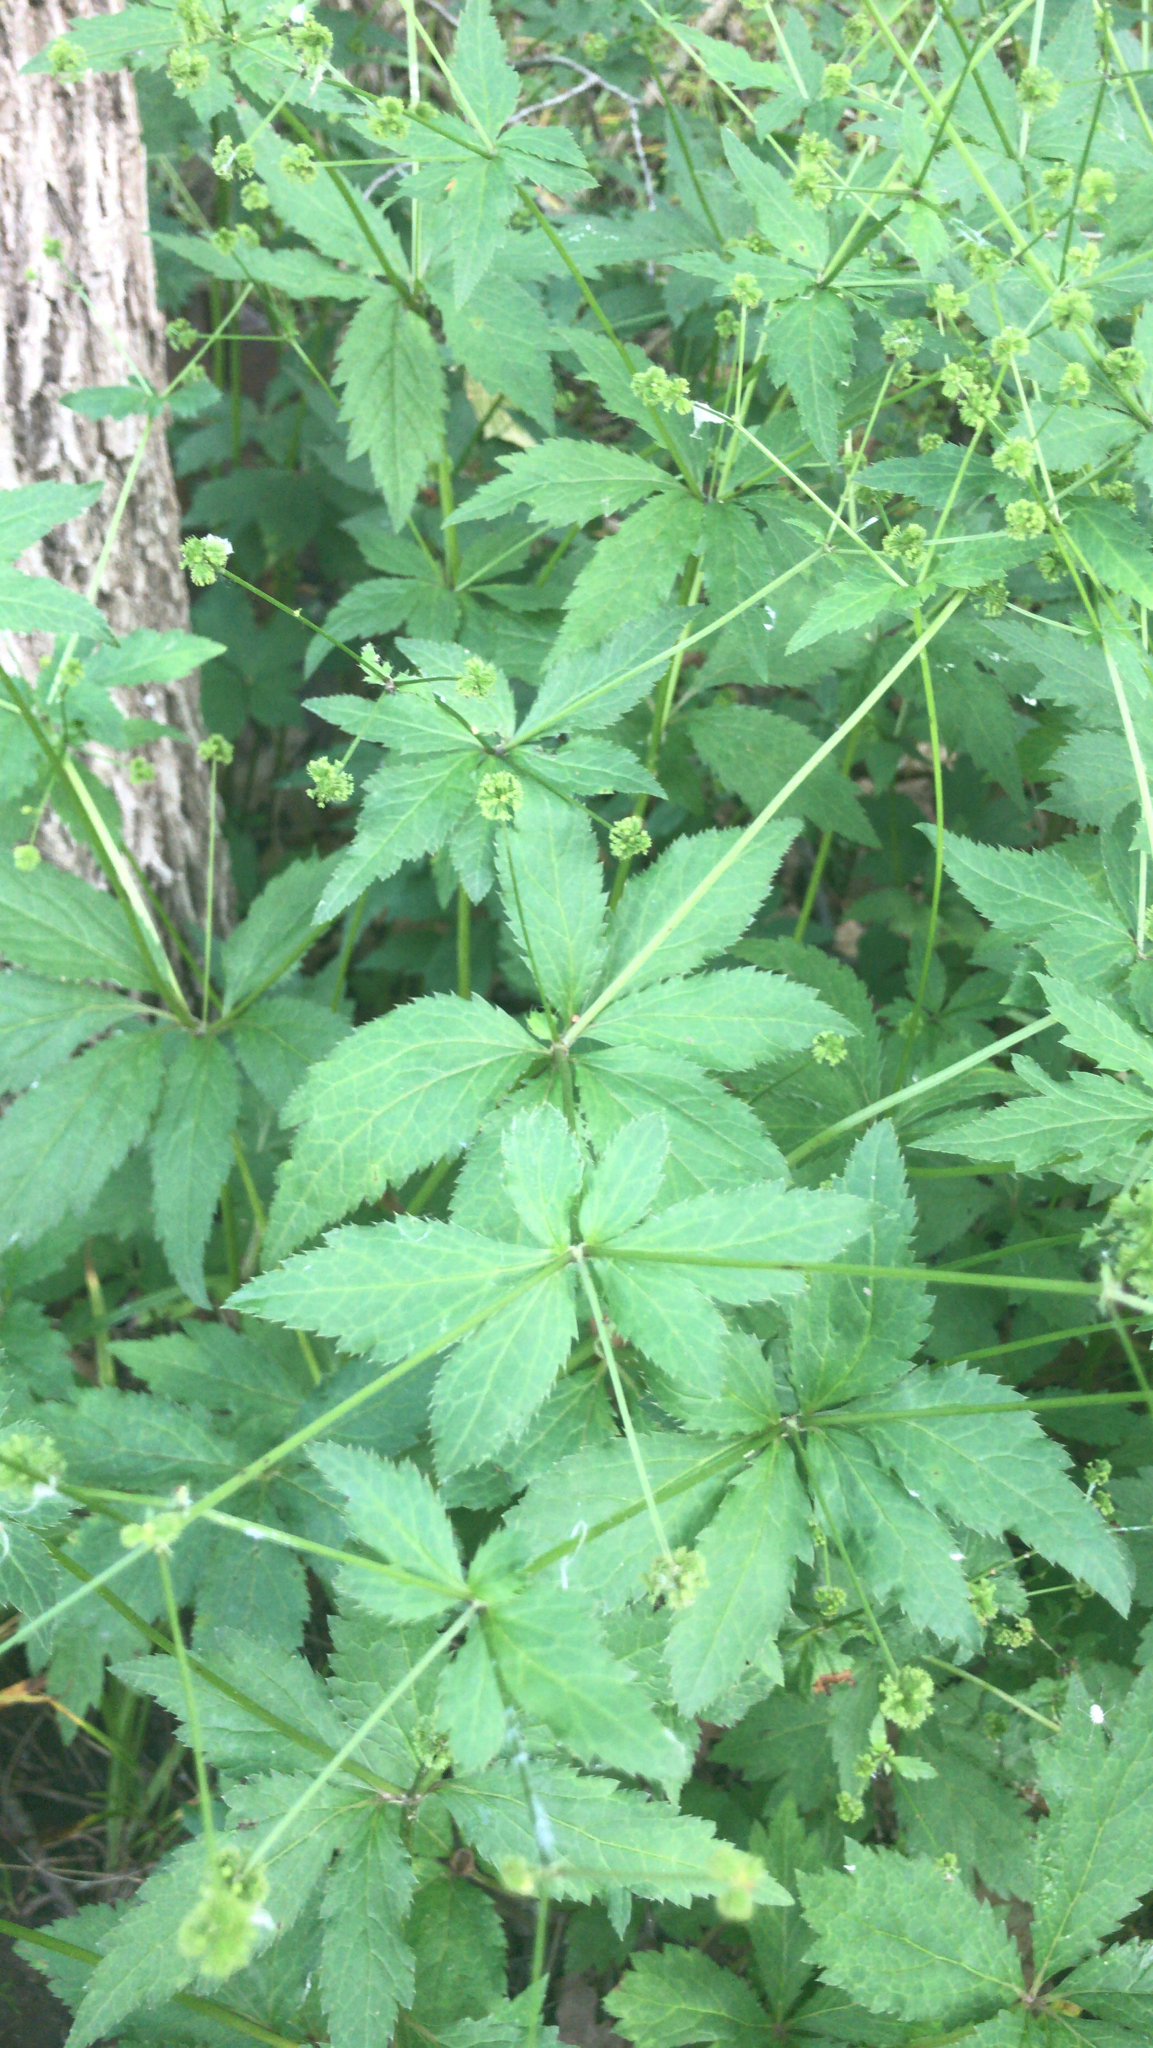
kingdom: Plantae
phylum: Tracheophyta
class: Magnoliopsida
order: Apiales
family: Apiaceae
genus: Sanicula
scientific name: Sanicula odorata
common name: Cluster sanicle
